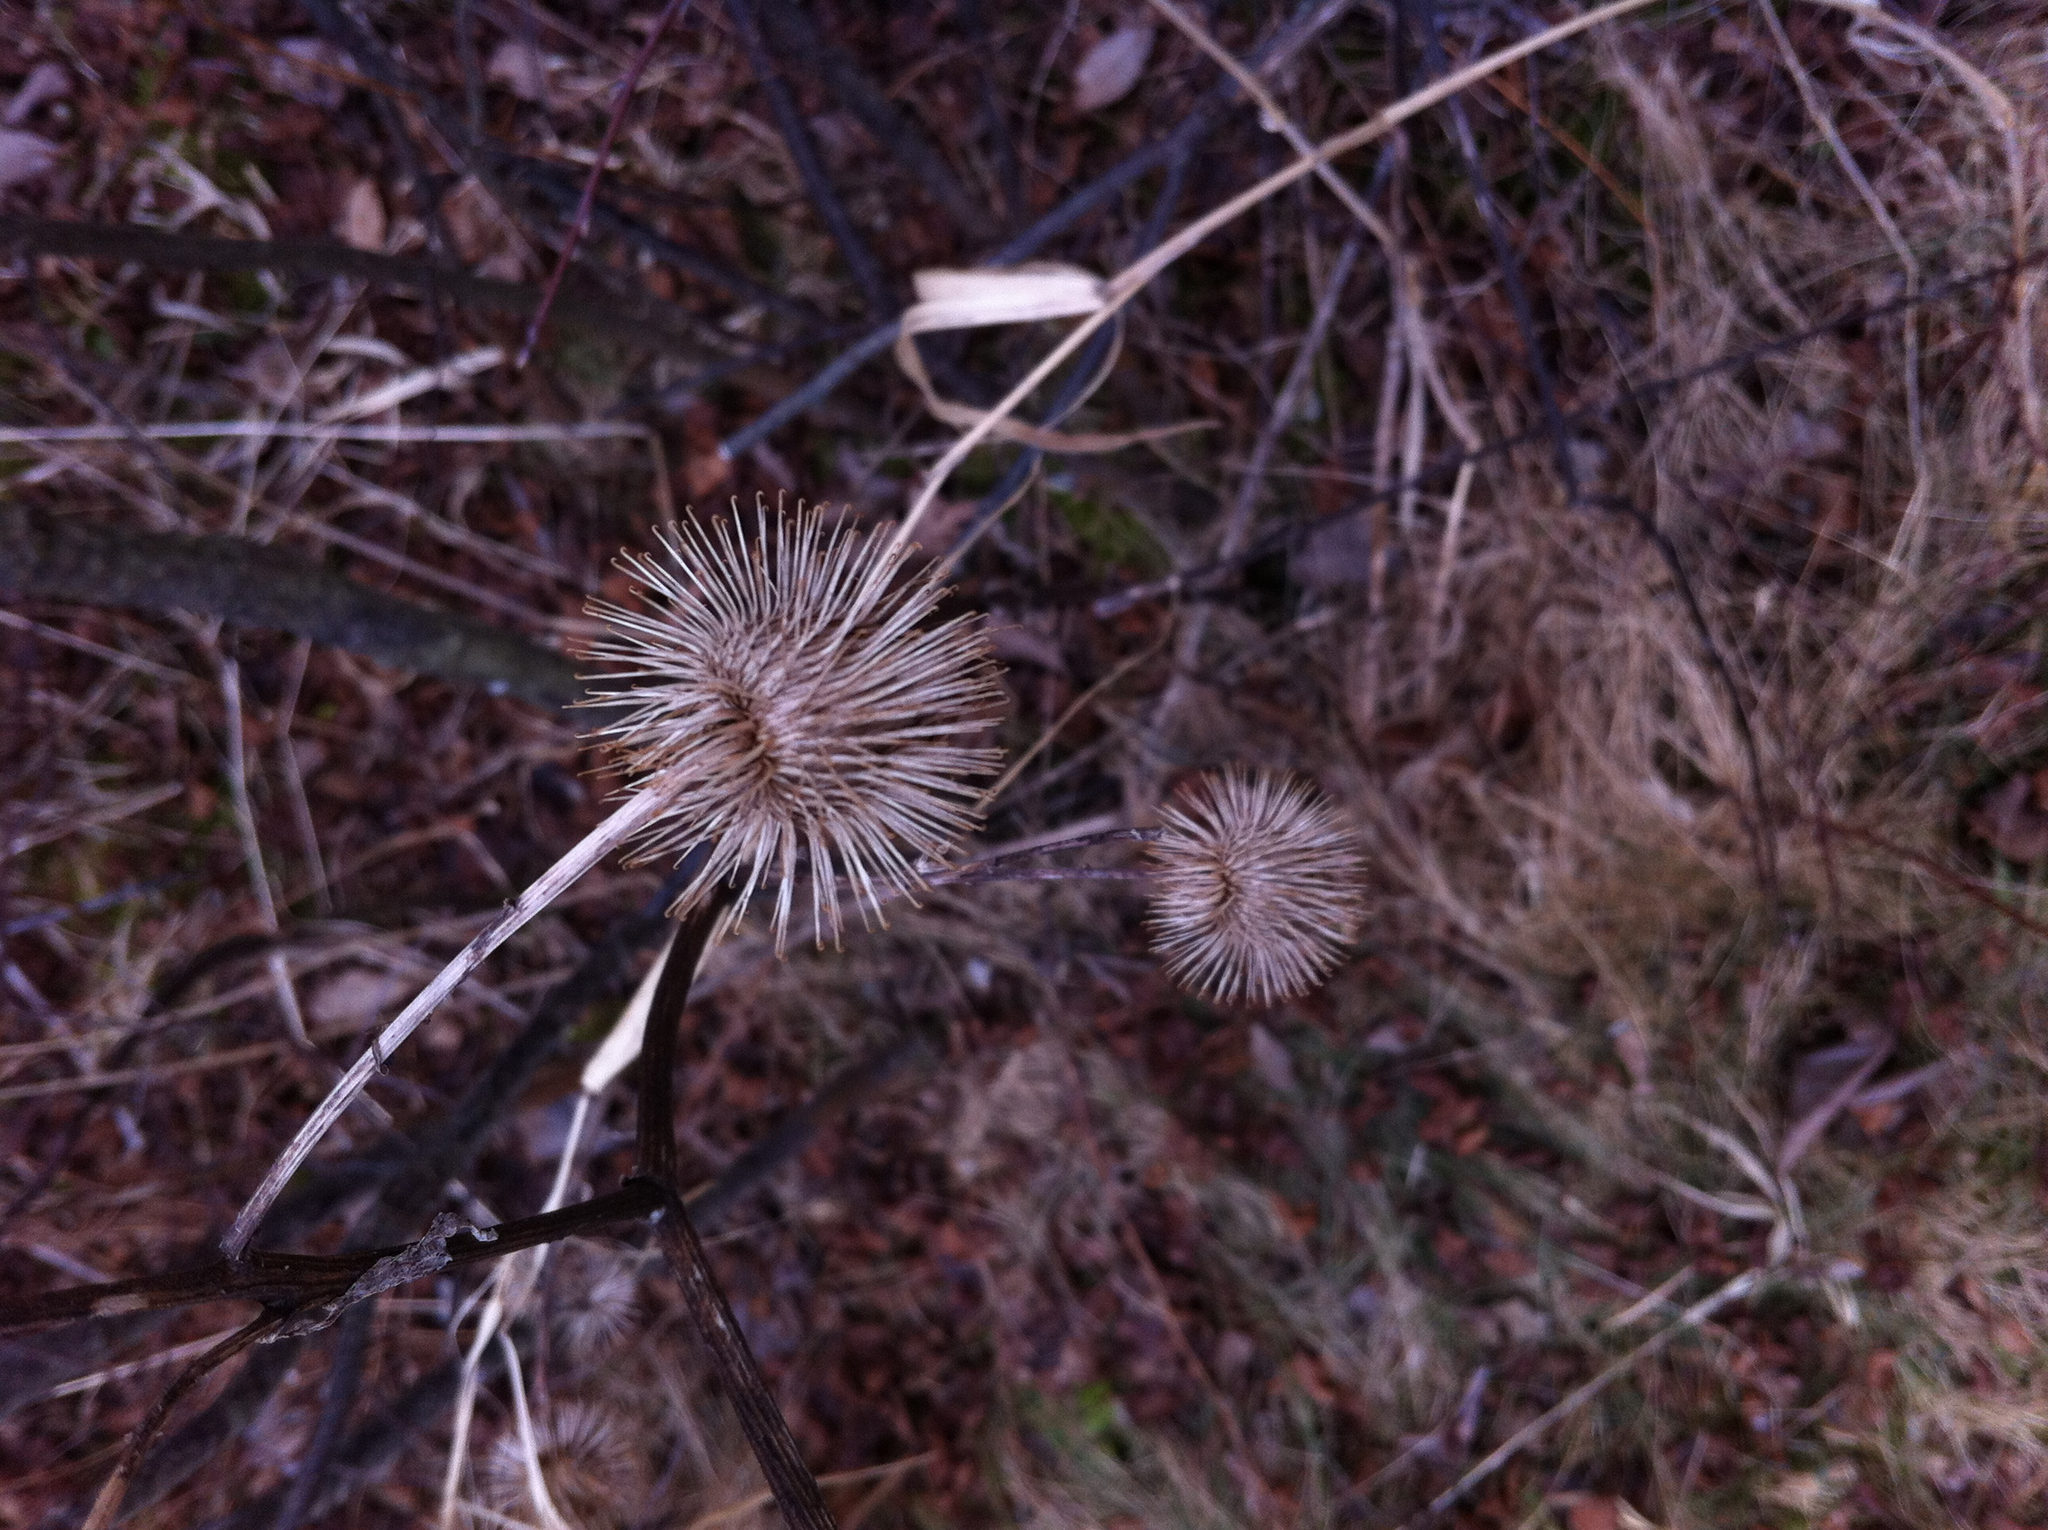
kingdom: Plantae
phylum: Tracheophyta
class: Magnoliopsida
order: Asterales
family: Asteraceae
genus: Arctium
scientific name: Arctium lappa
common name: Greater burdock
